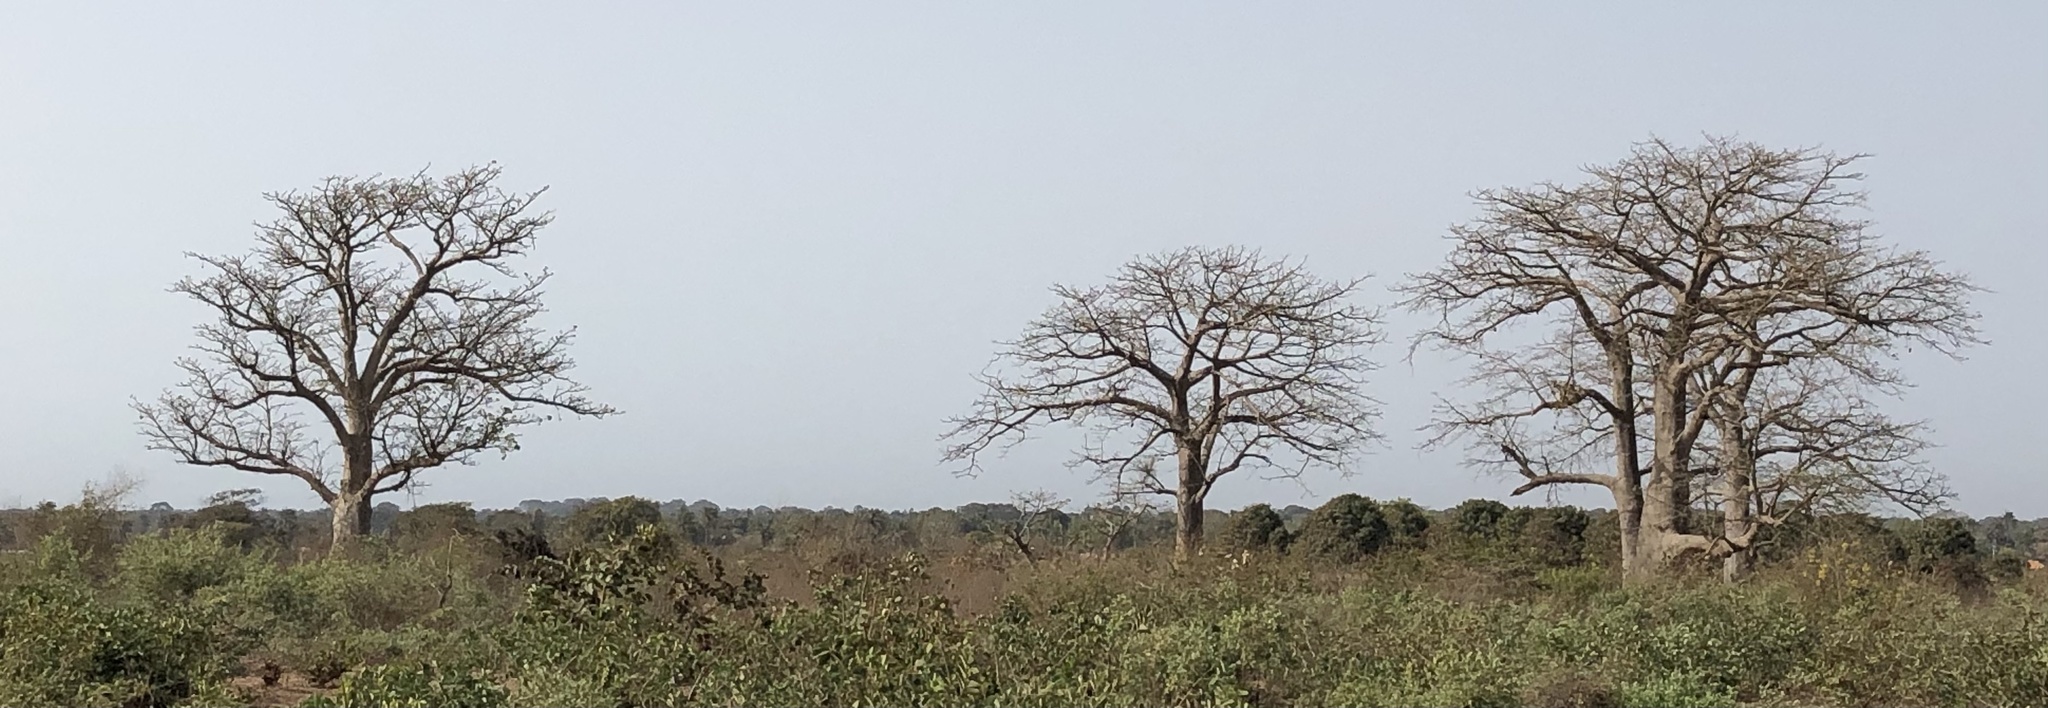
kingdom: Plantae
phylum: Tracheophyta
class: Magnoliopsida
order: Malvales
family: Malvaceae
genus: Adansonia
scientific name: Adansonia digitata
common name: Dead-rat-tree
